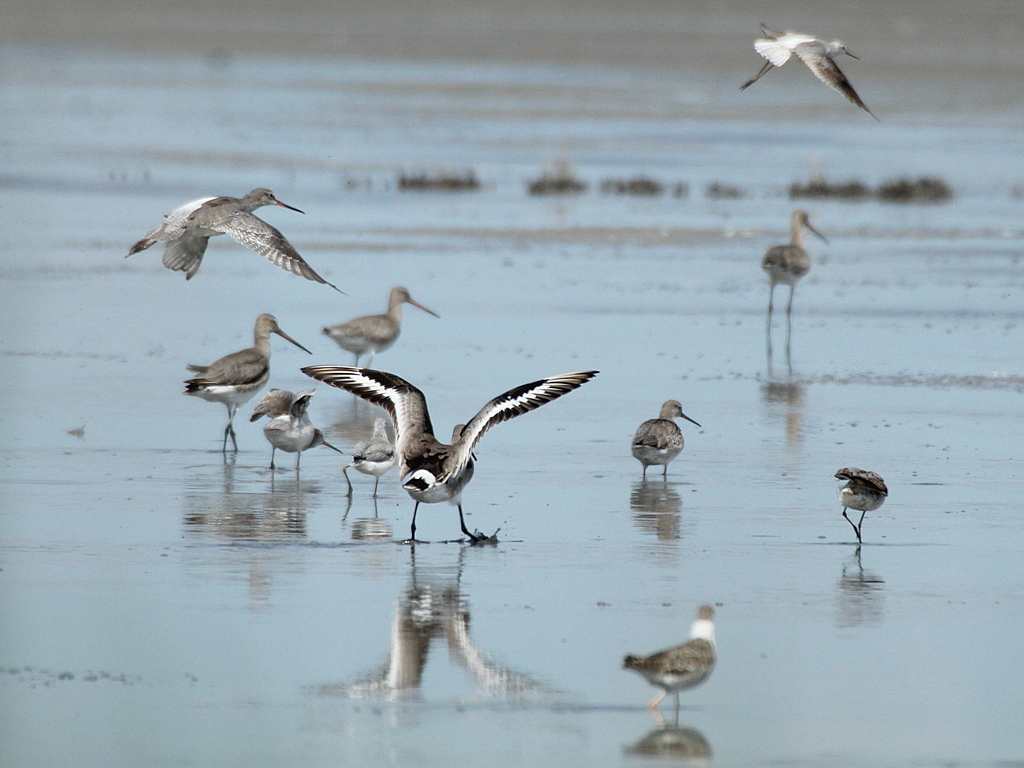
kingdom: Animalia
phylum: Chordata
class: Aves
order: Charadriiformes
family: Scolopacidae
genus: Limosa
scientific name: Limosa limosa
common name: Black-tailed godwit
